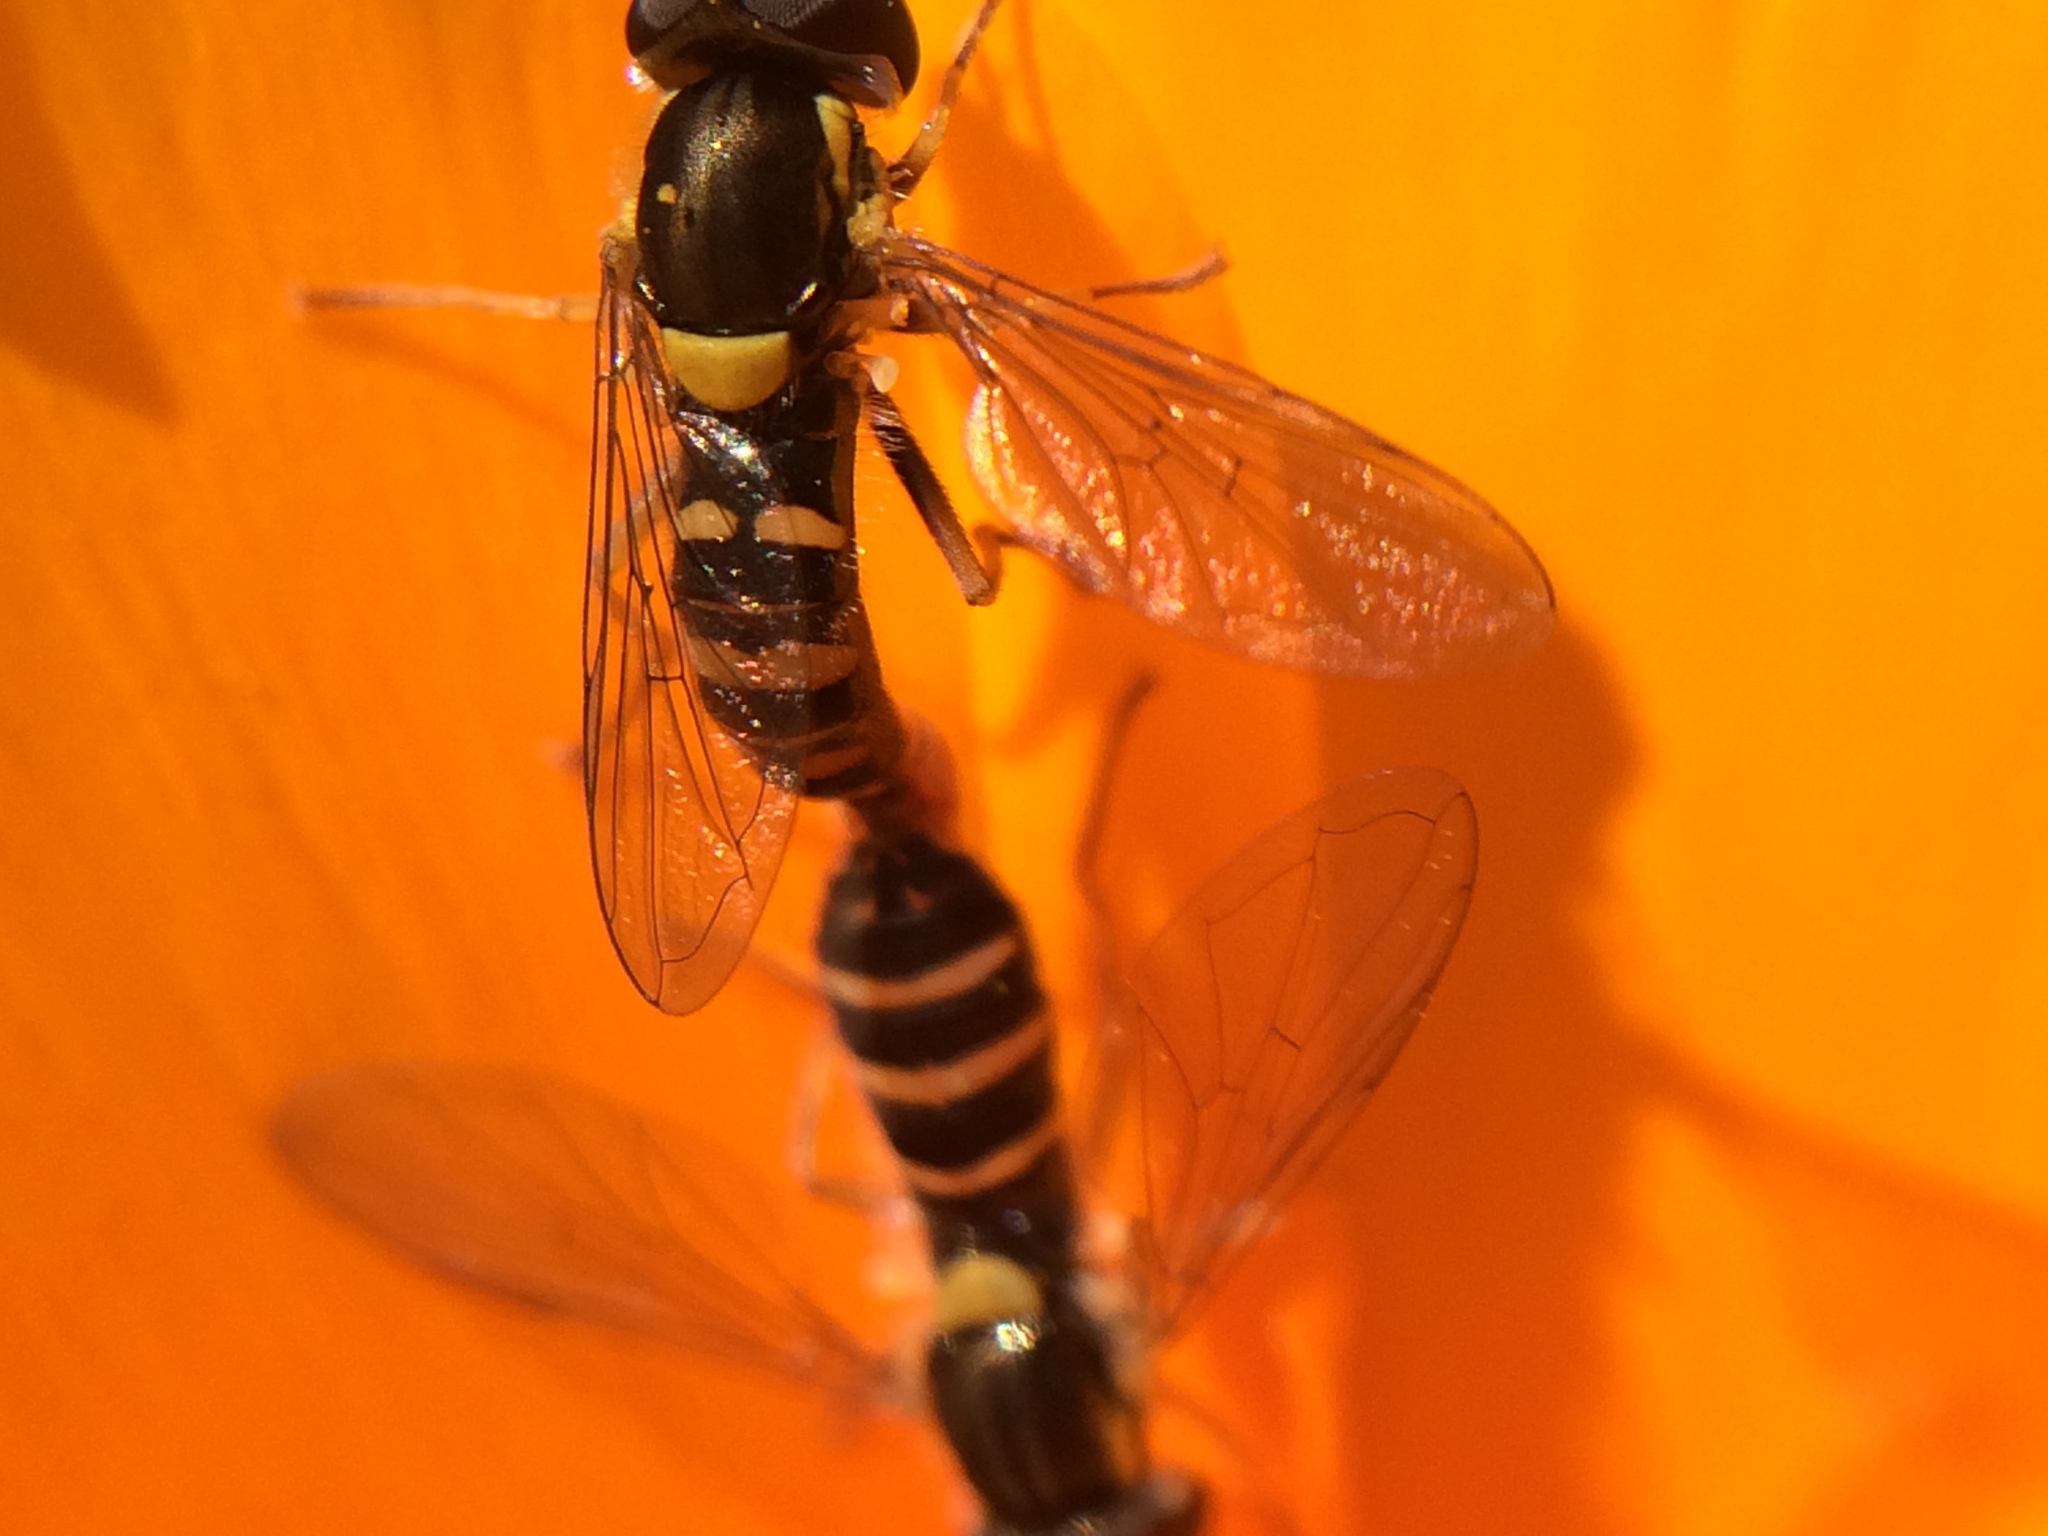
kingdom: Animalia
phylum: Arthropoda
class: Insecta
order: Diptera
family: Syrphidae
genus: Sphaerophoria
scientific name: Sphaerophoria sulphuripes
